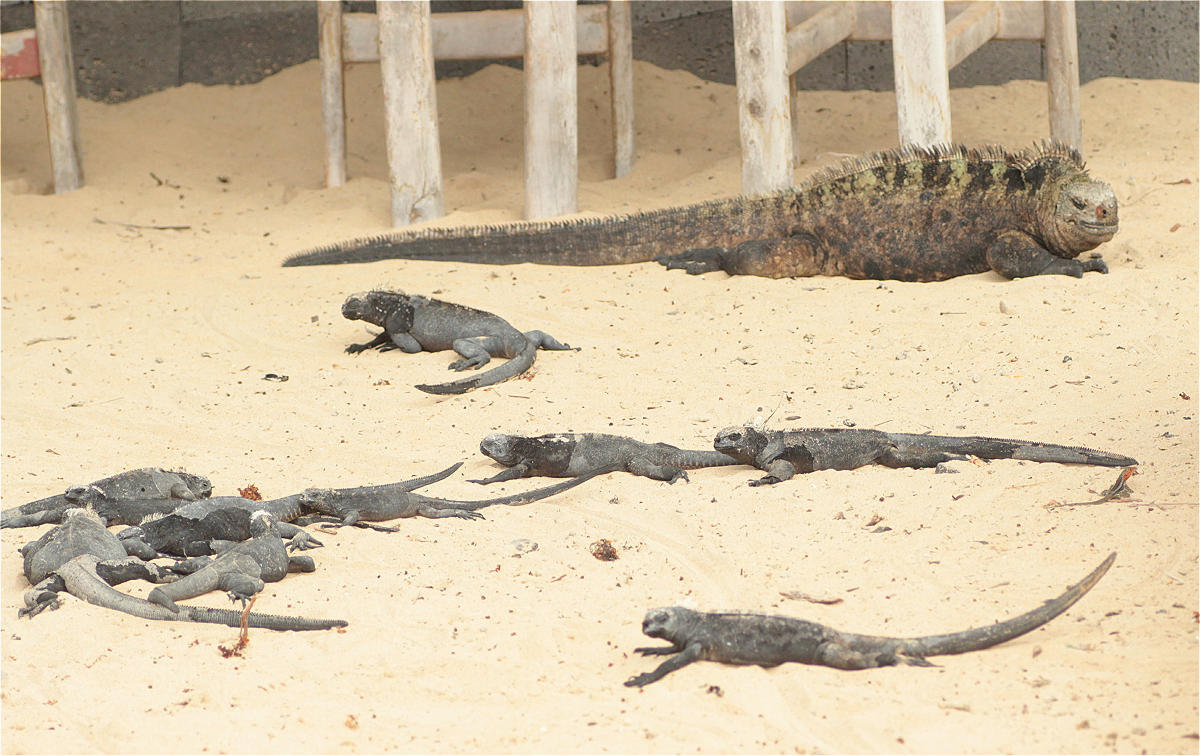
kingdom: Animalia
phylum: Chordata
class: Squamata
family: Iguanidae
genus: Amblyrhynchus
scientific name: Amblyrhynchus cristatus
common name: Marine iguana
